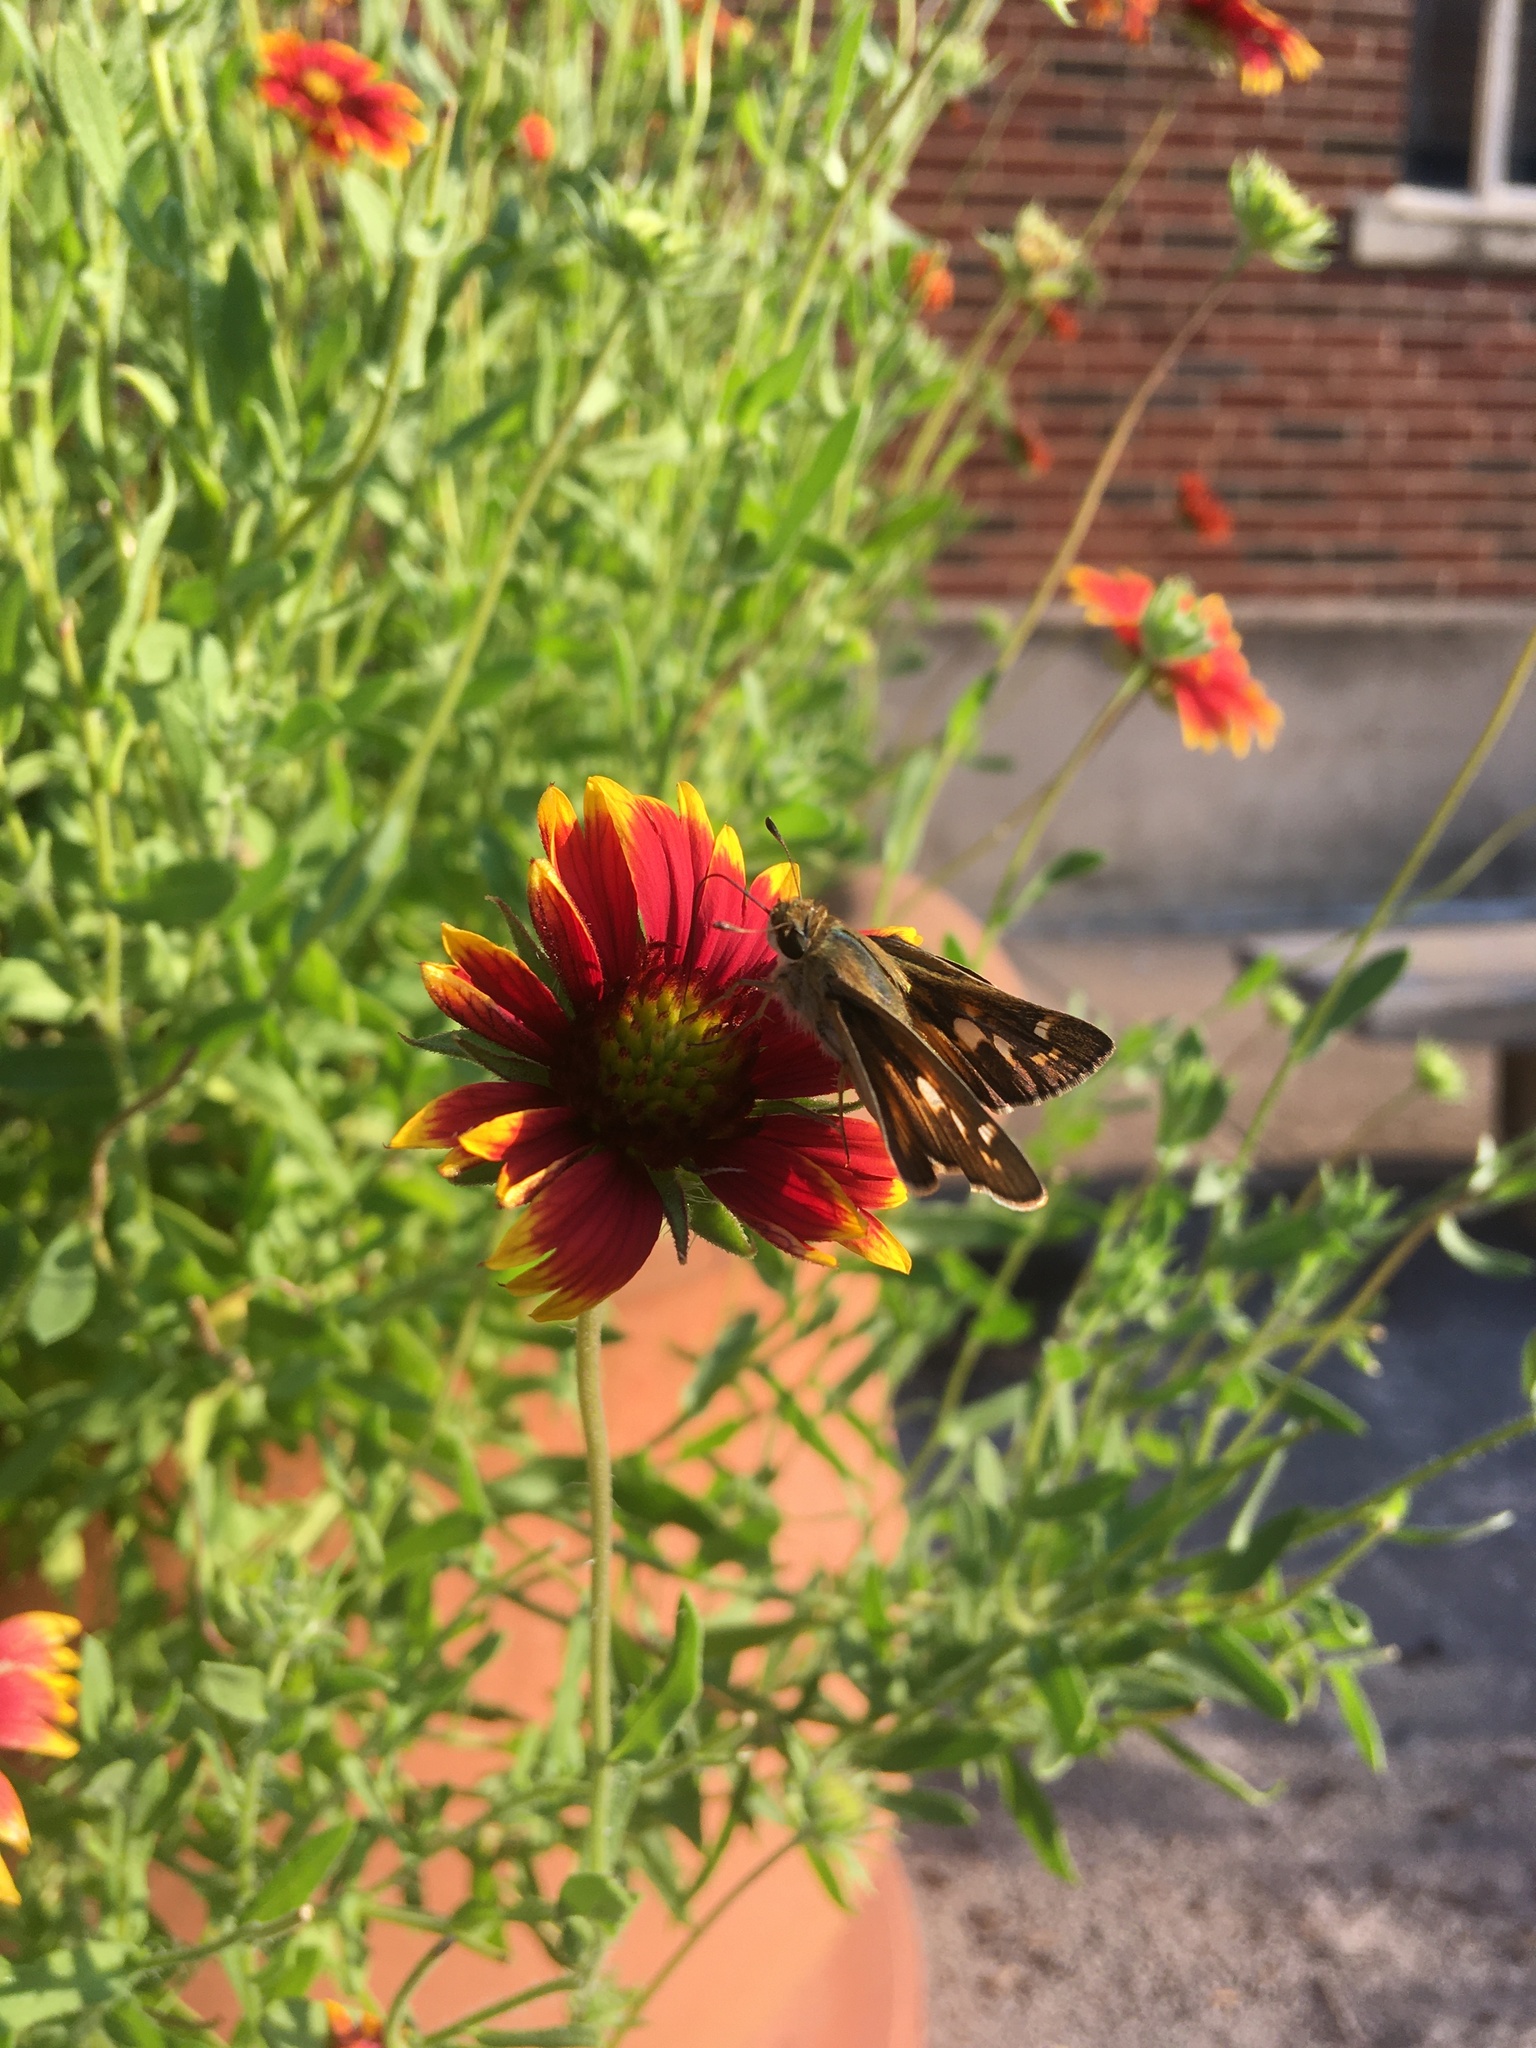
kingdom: Animalia
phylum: Arthropoda
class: Insecta
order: Lepidoptera
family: Hesperiidae
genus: Atalopedes
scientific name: Atalopedes
